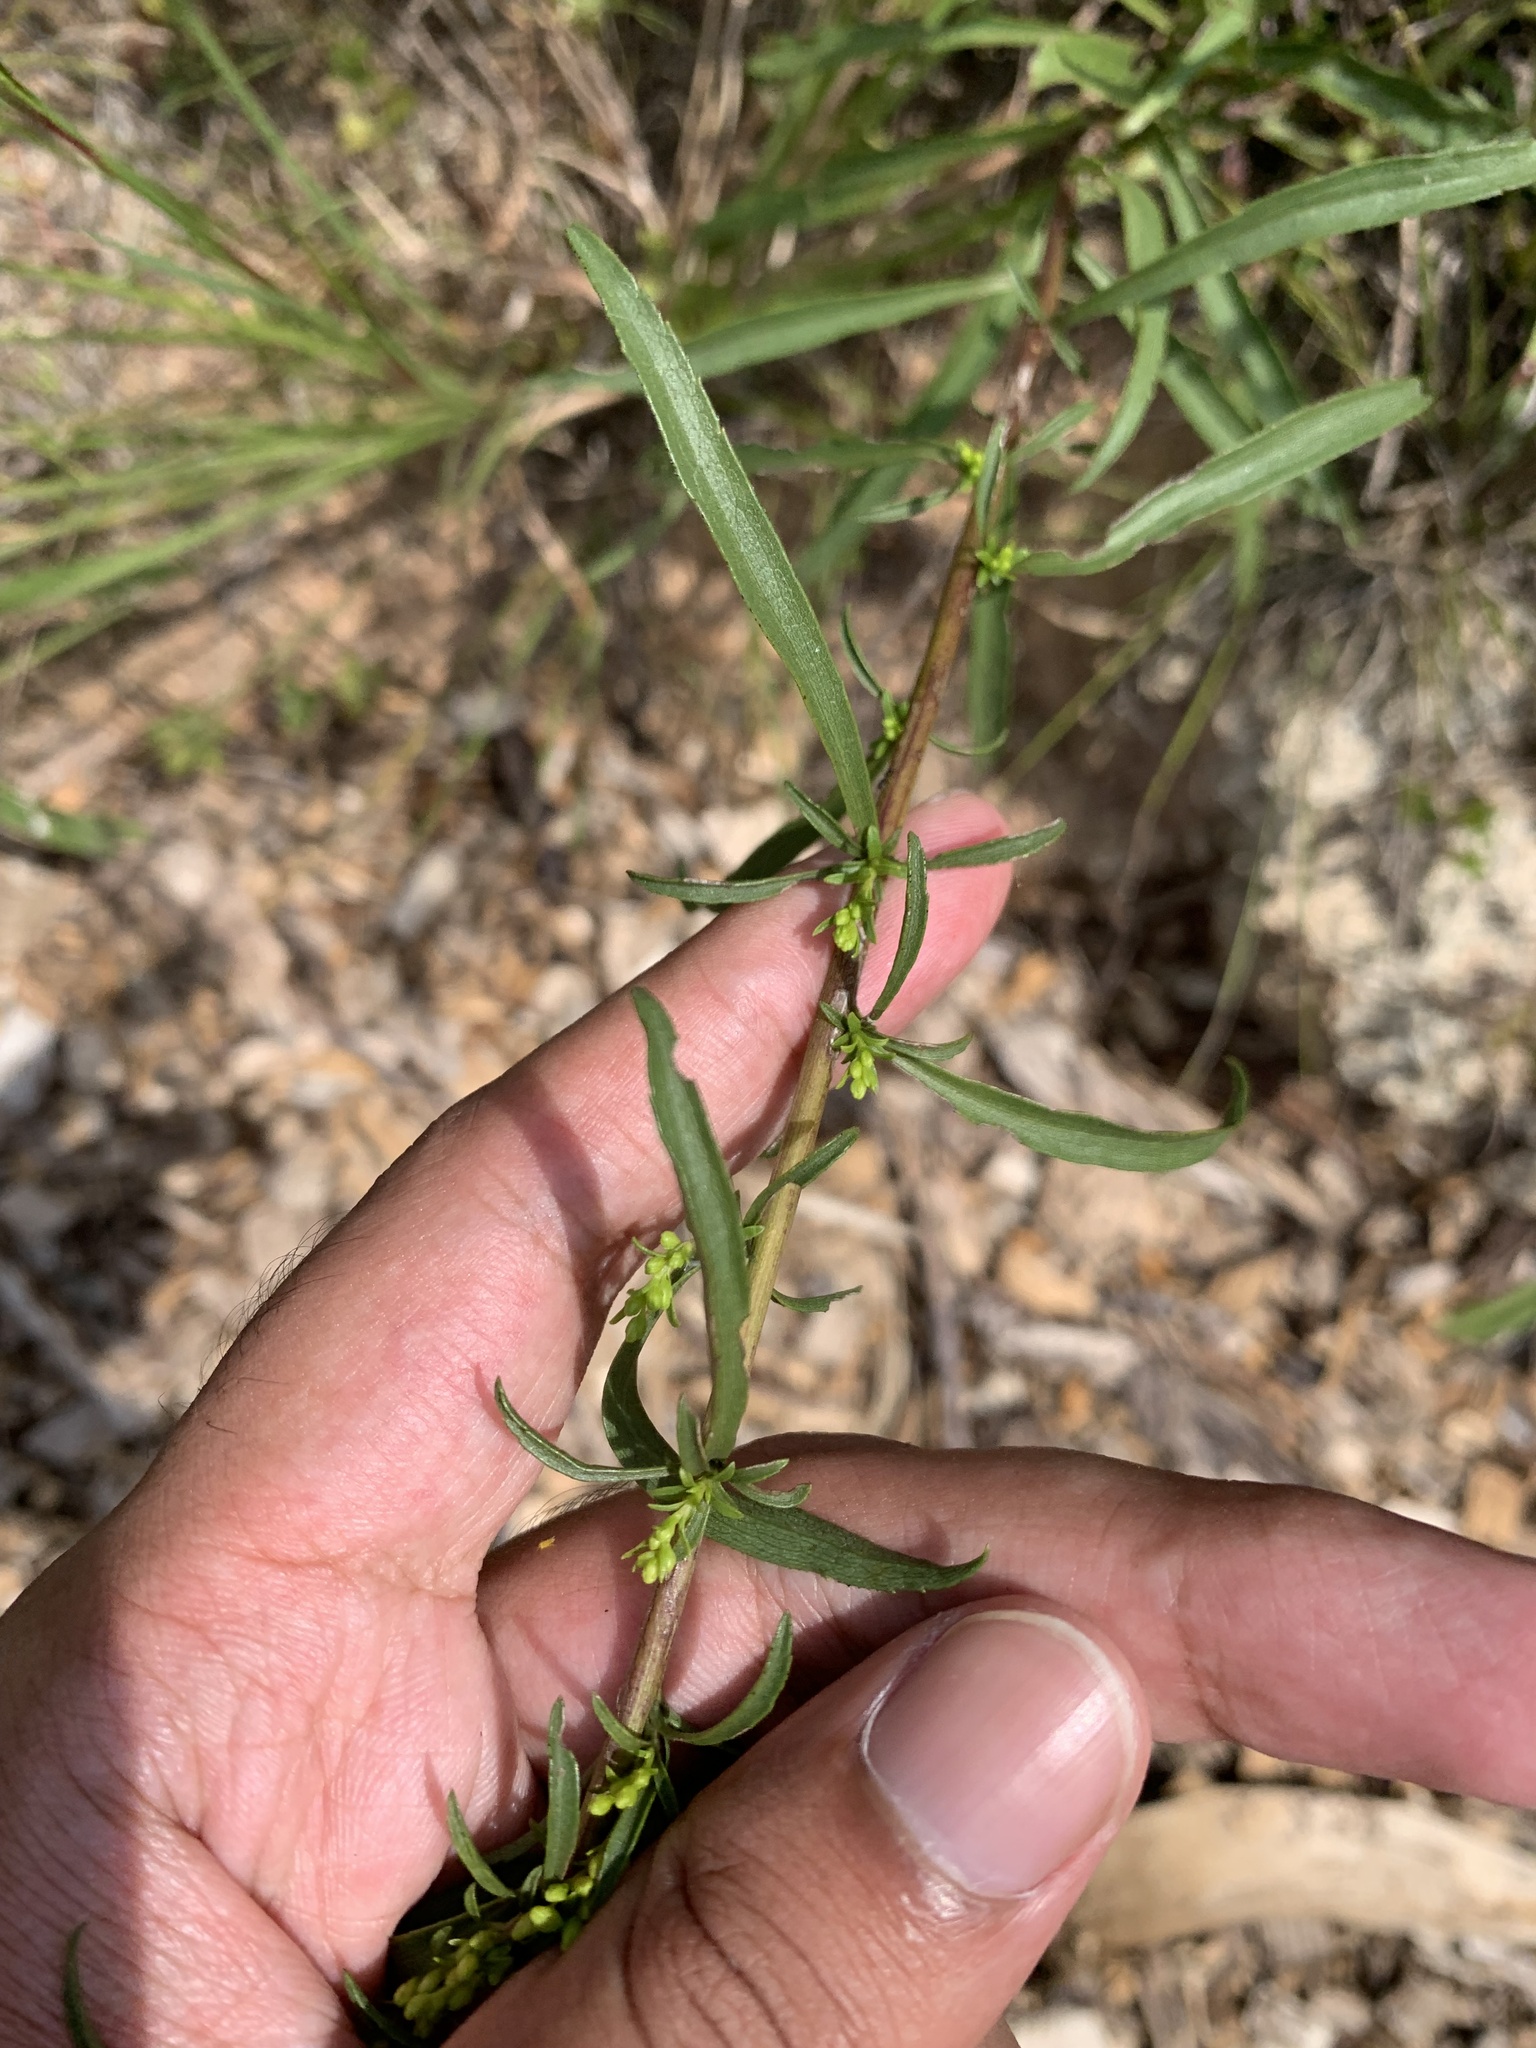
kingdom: Plantae
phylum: Tracheophyta
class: Magnoliopsida
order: Asterales
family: Asteraceae
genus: Solidago
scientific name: Solidago pinetorum
